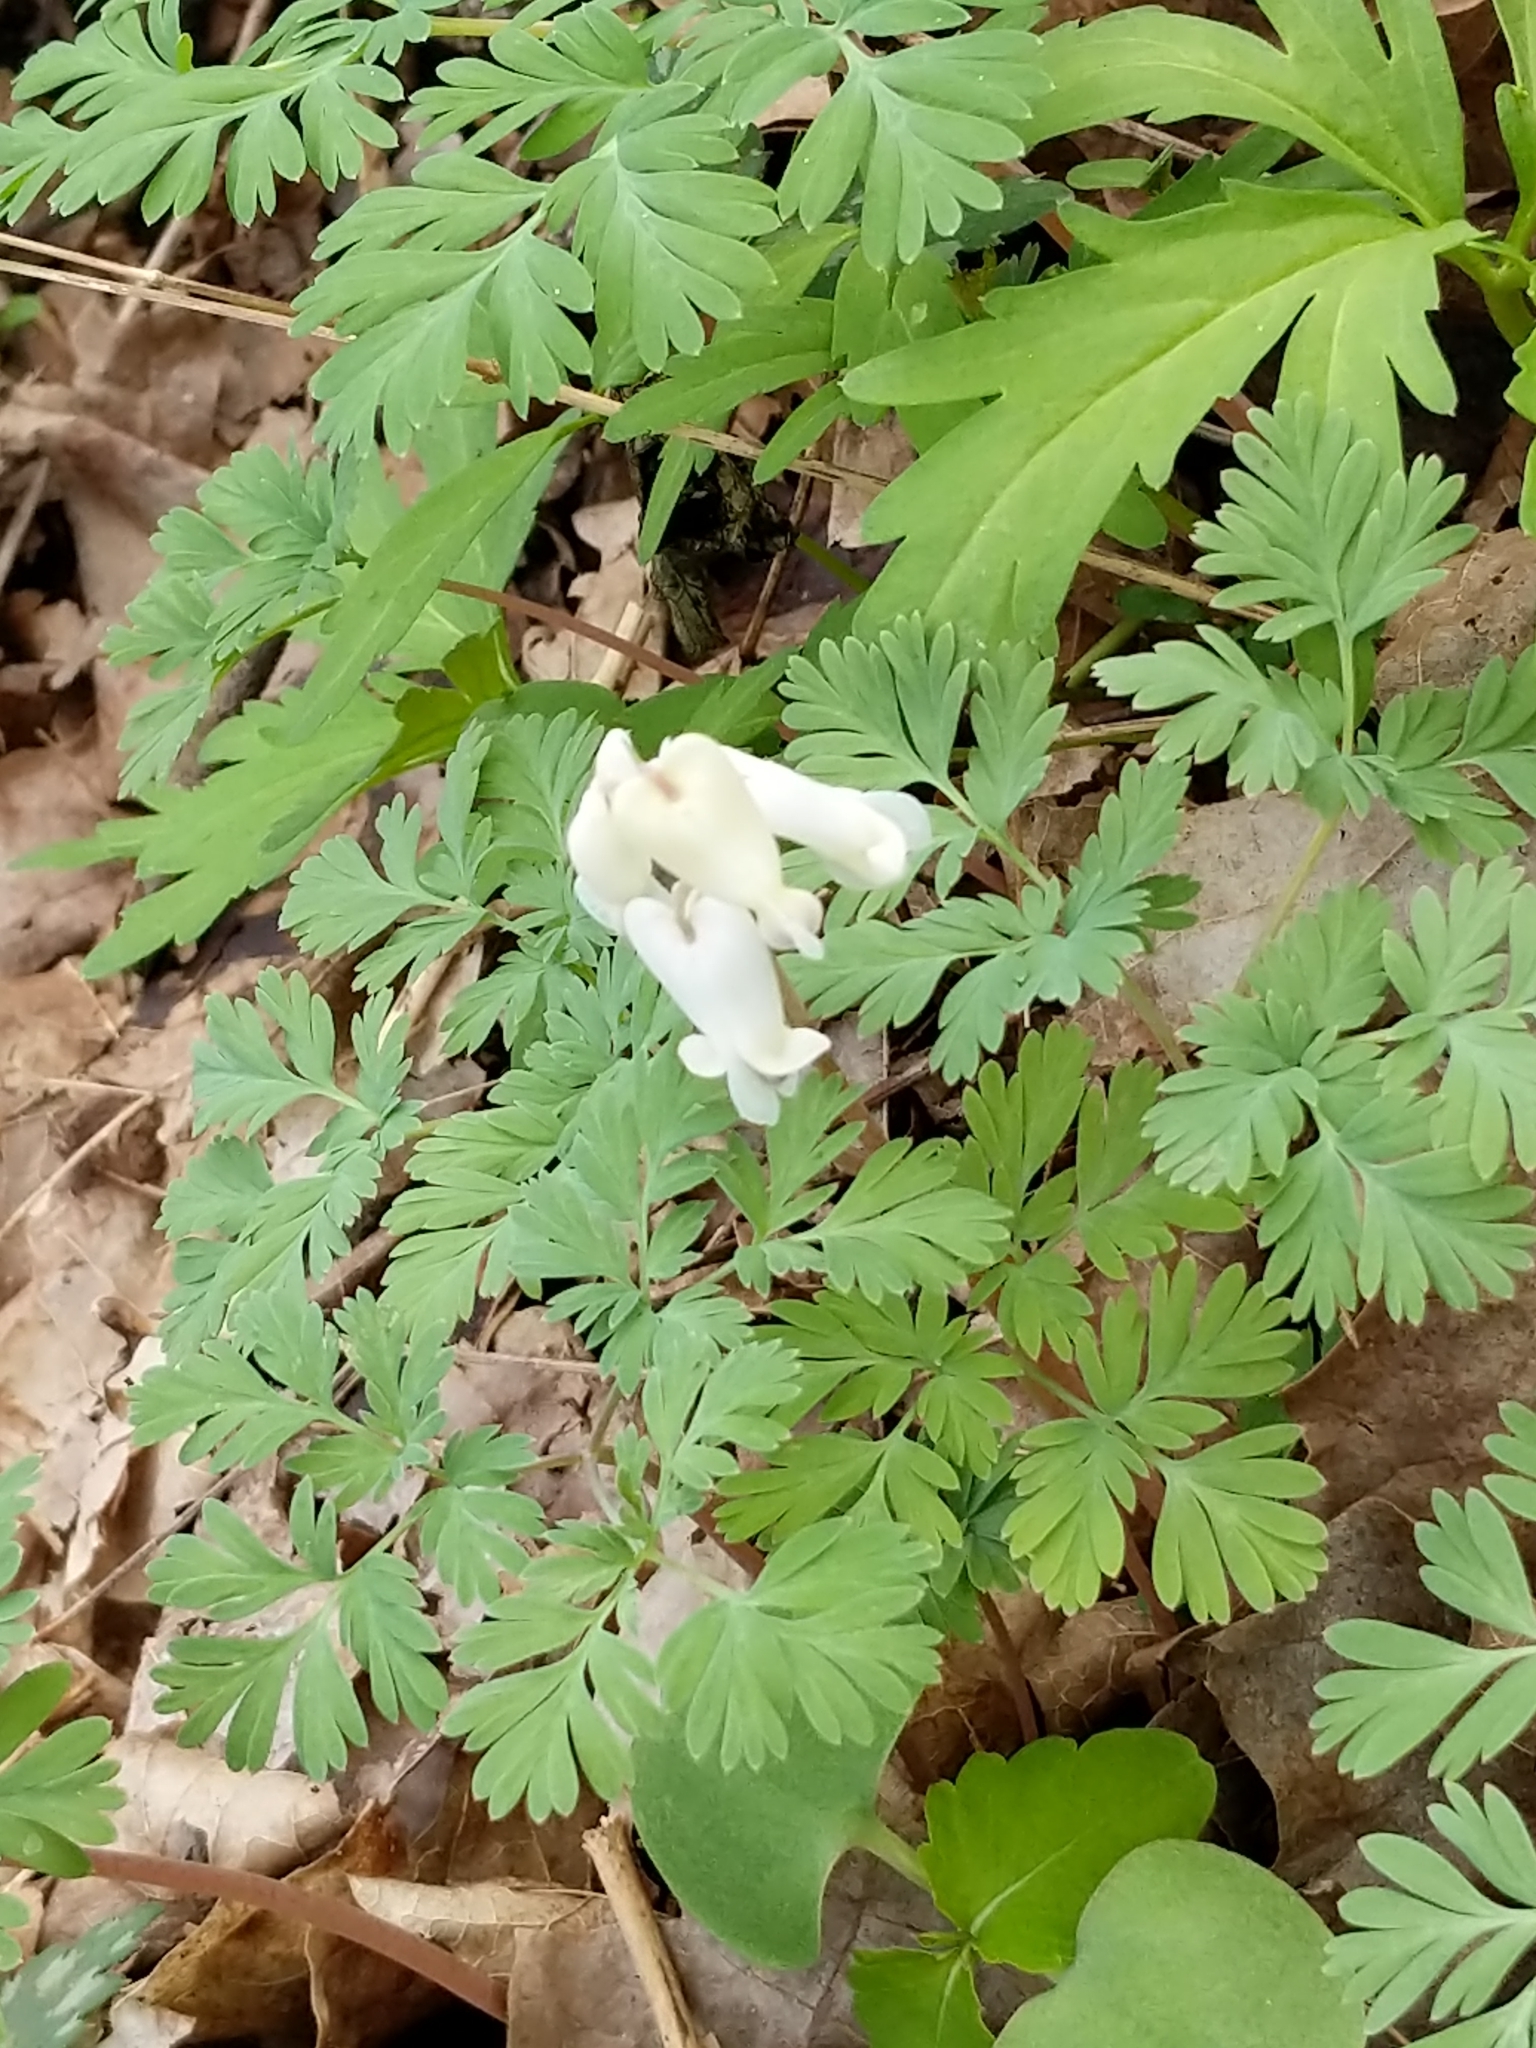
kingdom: Plantae
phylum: Tracheophyta
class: Magnoliopsida
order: Ranunculales
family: Papaveraceae
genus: Dicentra
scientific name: Dicentra canadensis
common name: Squirrel-corn
